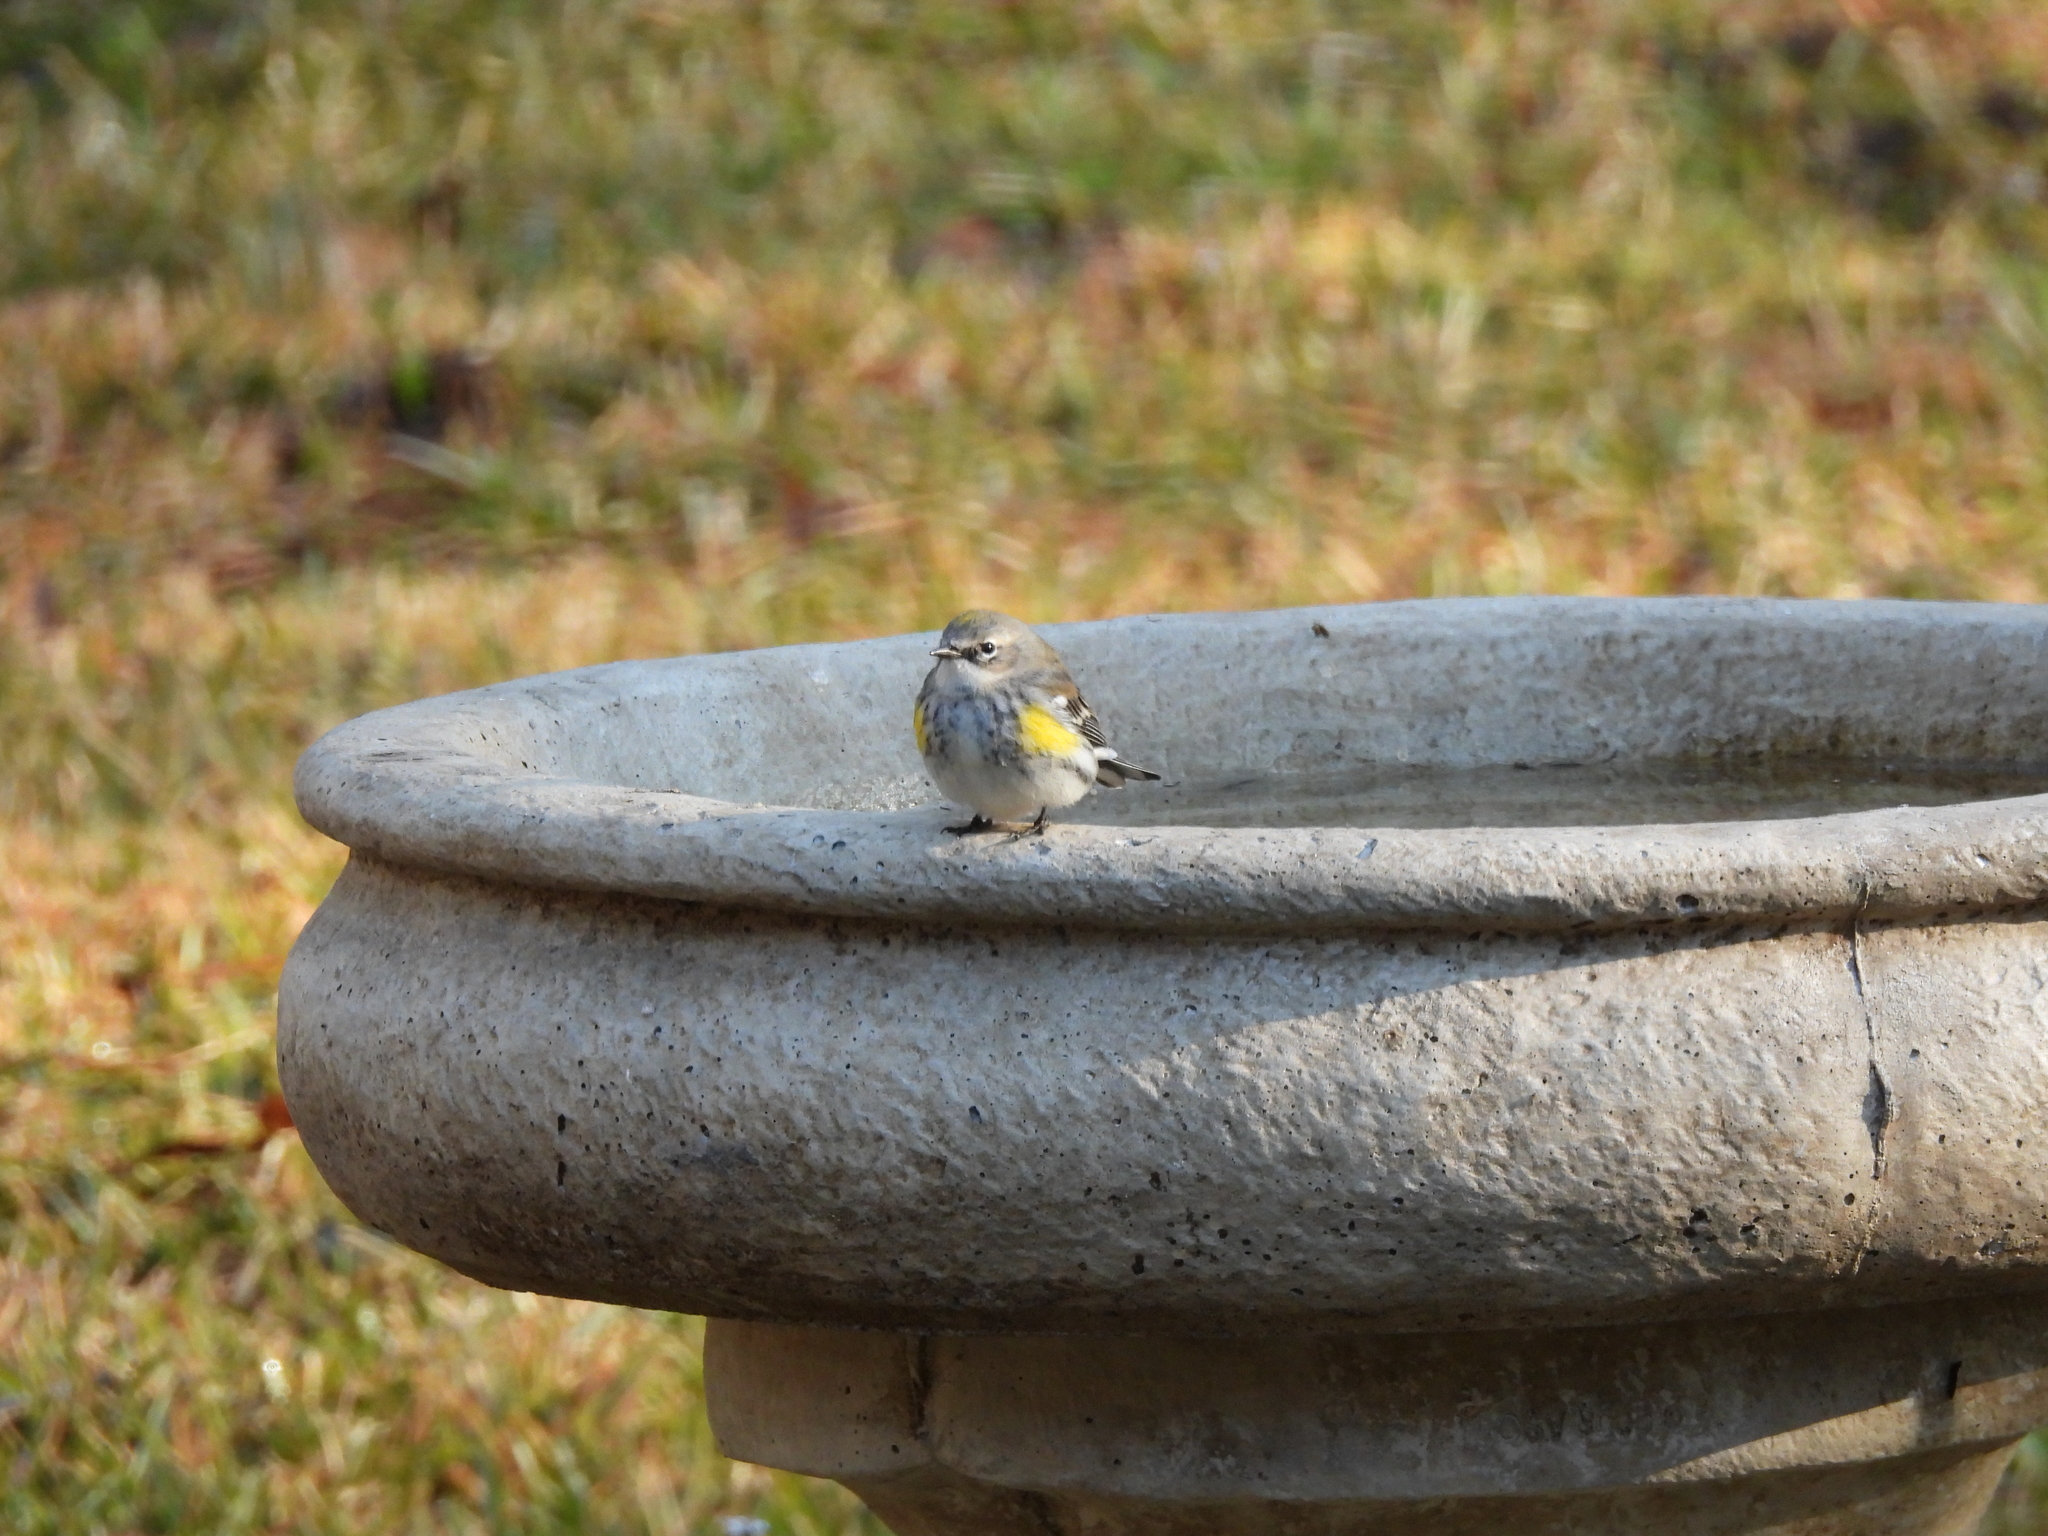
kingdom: Animalia
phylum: Chordata
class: Aves
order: Passeriformes
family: Parulidae
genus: Setophaga
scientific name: Setophaga coronata
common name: Myrtle warbler
